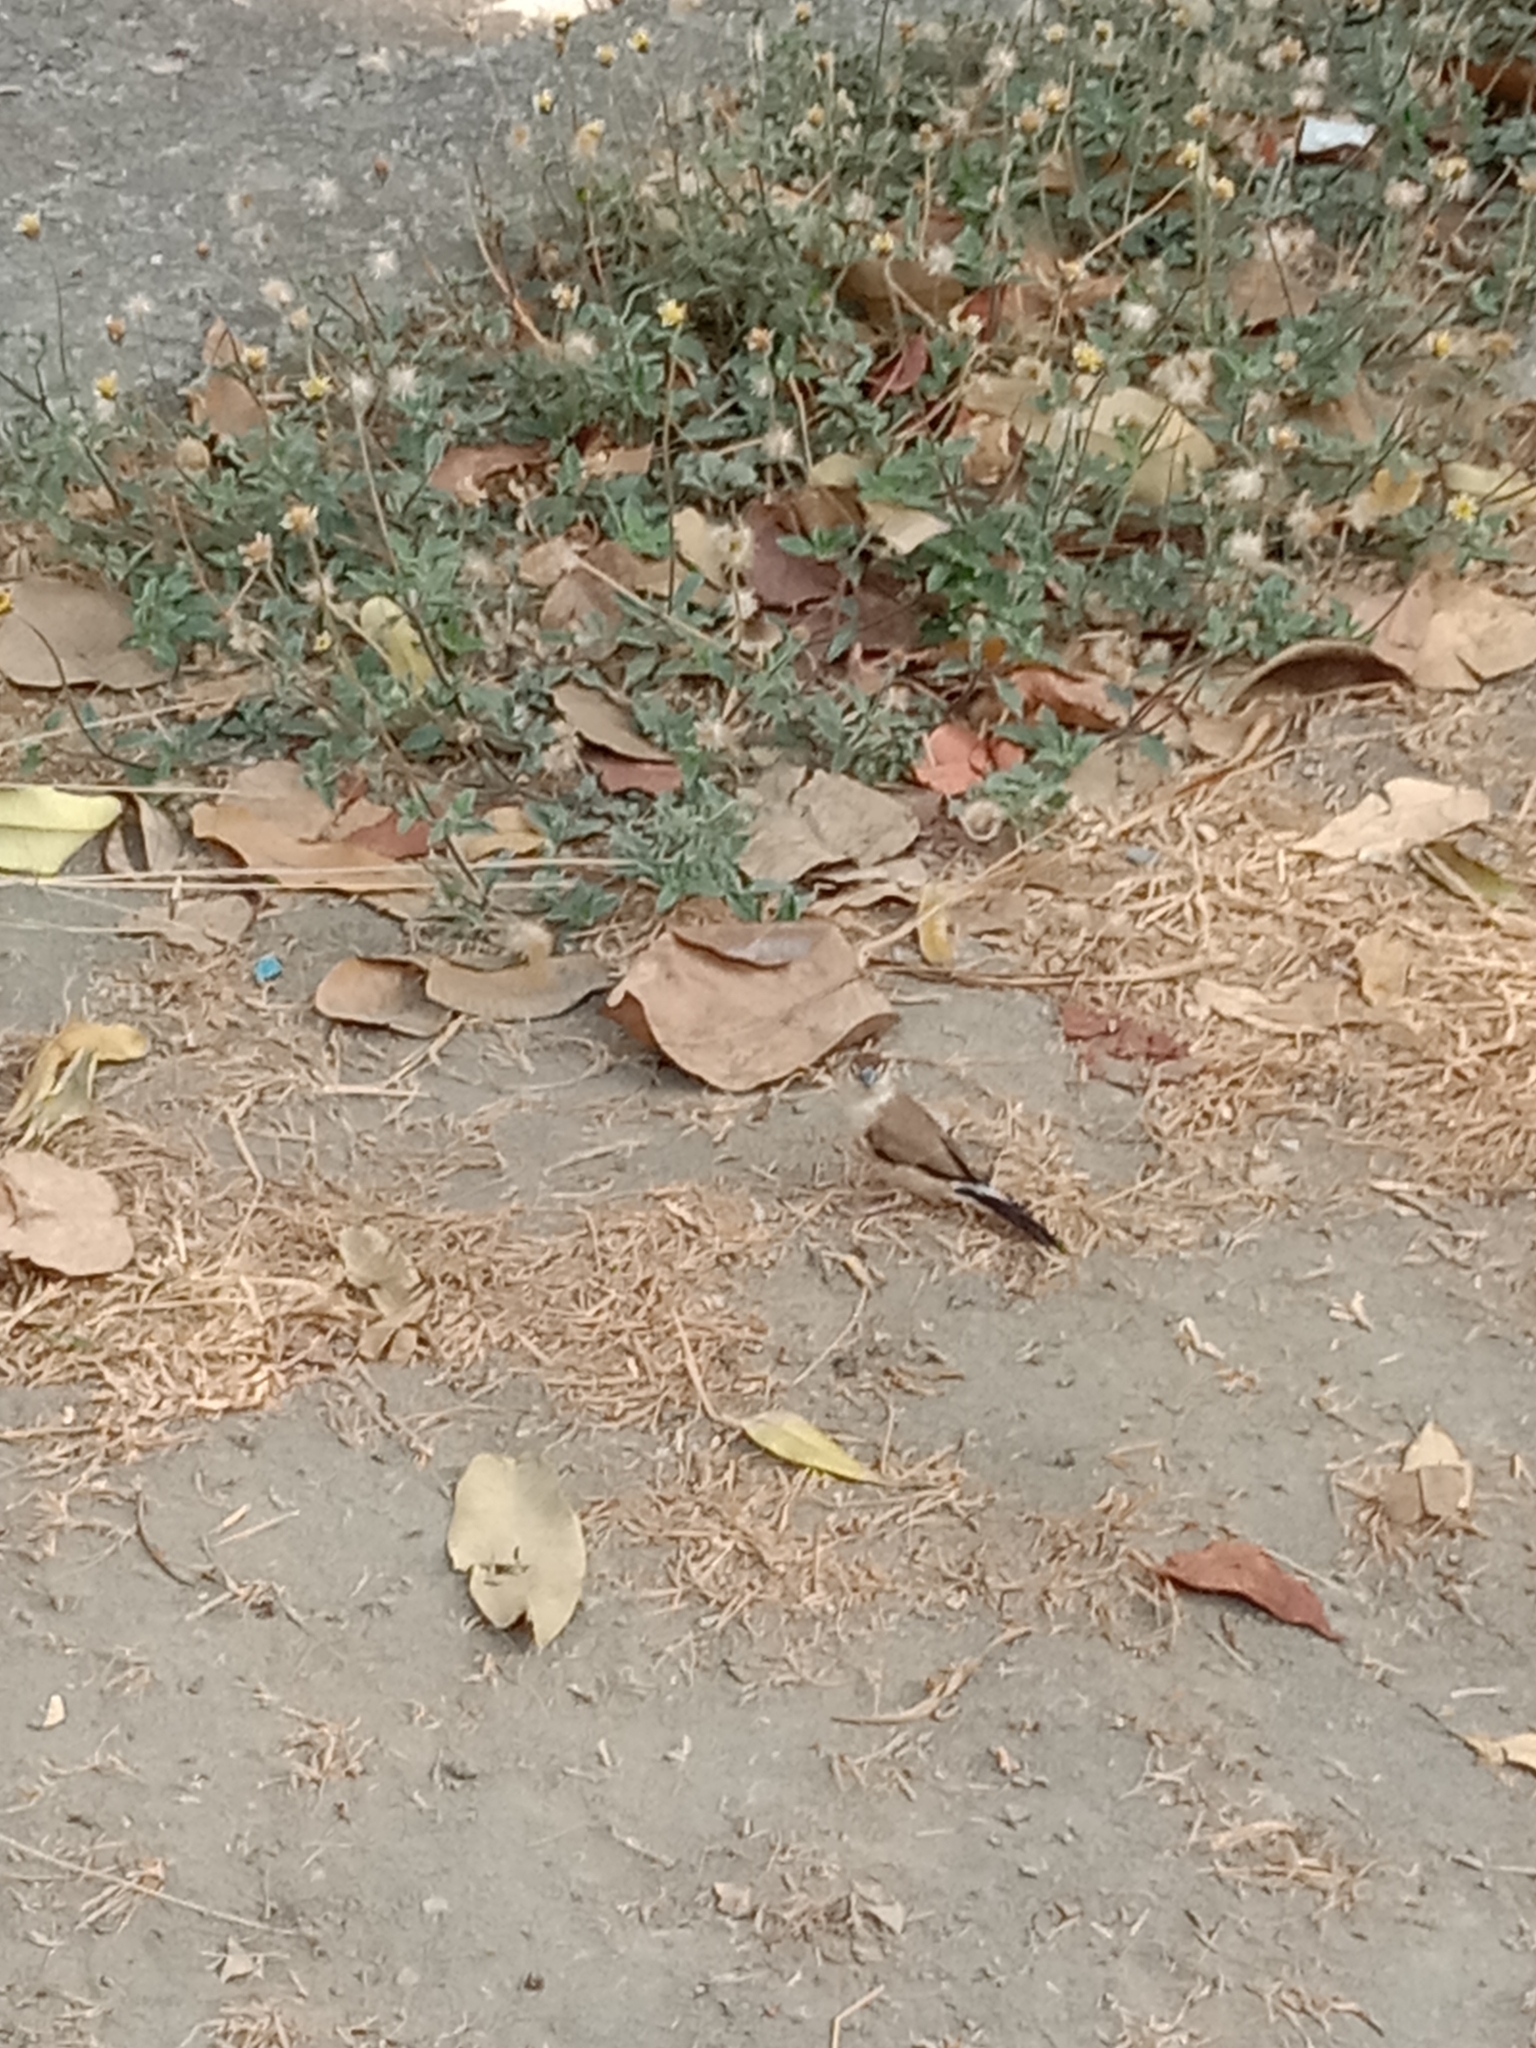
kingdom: Animalia
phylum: Chordata
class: Aves
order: Passeriformes
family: Estrildidae
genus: Euodice
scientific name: Euodice malabarica
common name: Indian silverbill
